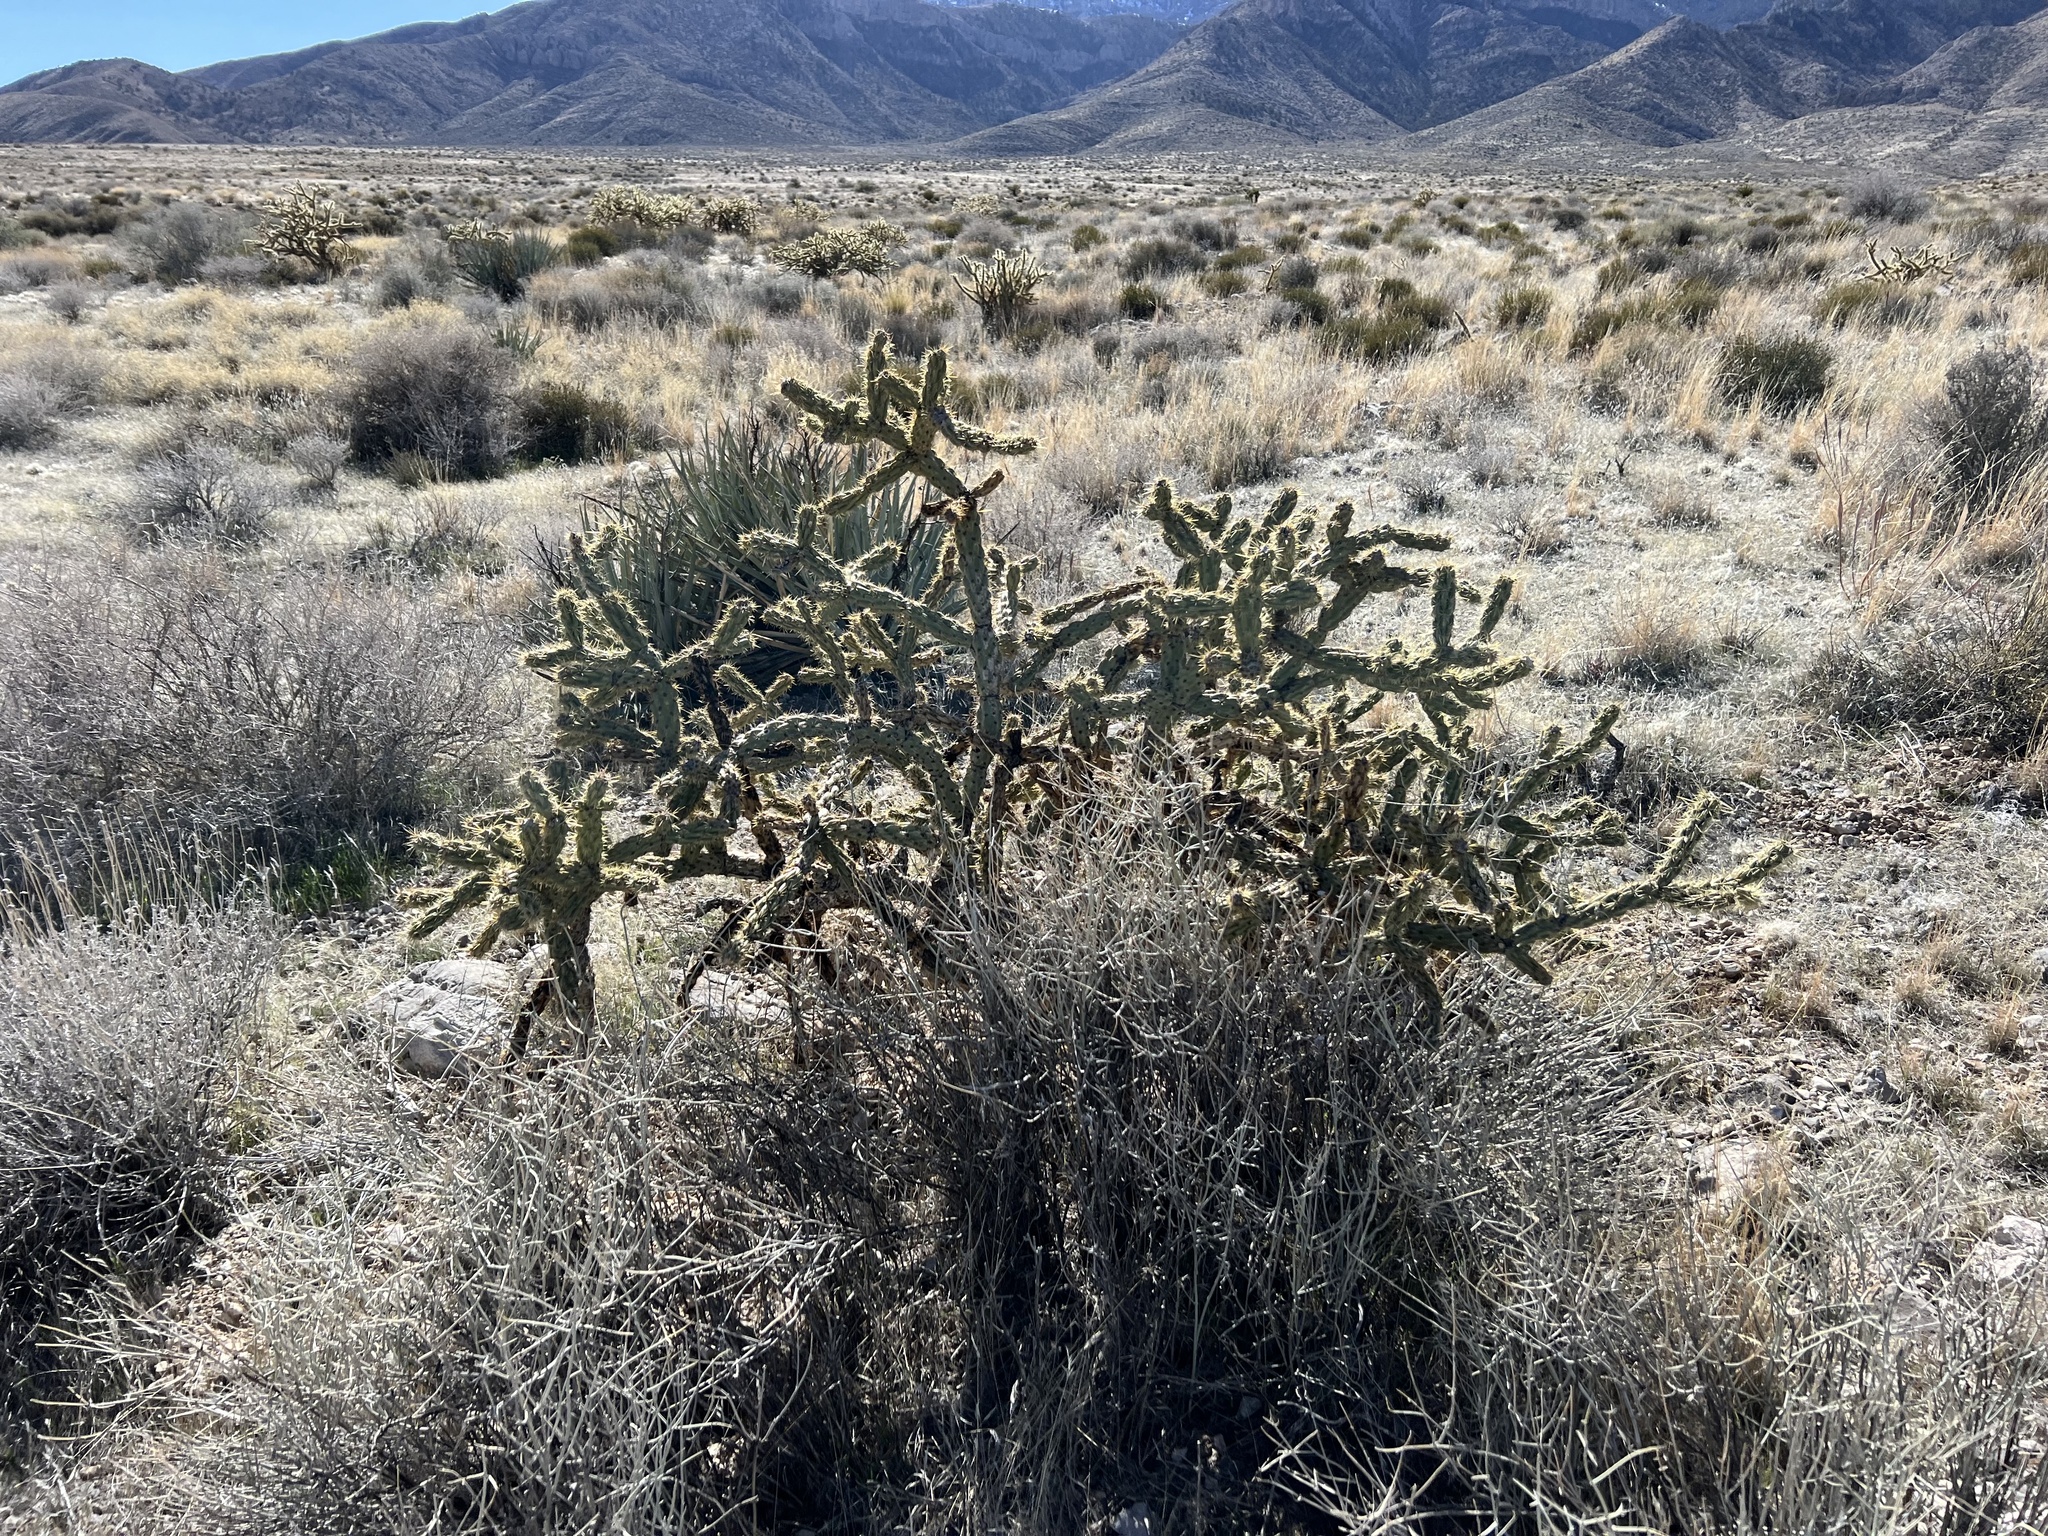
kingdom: Plantae
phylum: Tracheophyta
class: Magnoliopsida
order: Caryophyllales
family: Cactaceae
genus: Cylindropuntia
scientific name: Cylindropuntia acanthocarpa
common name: Buckhorn cholla
